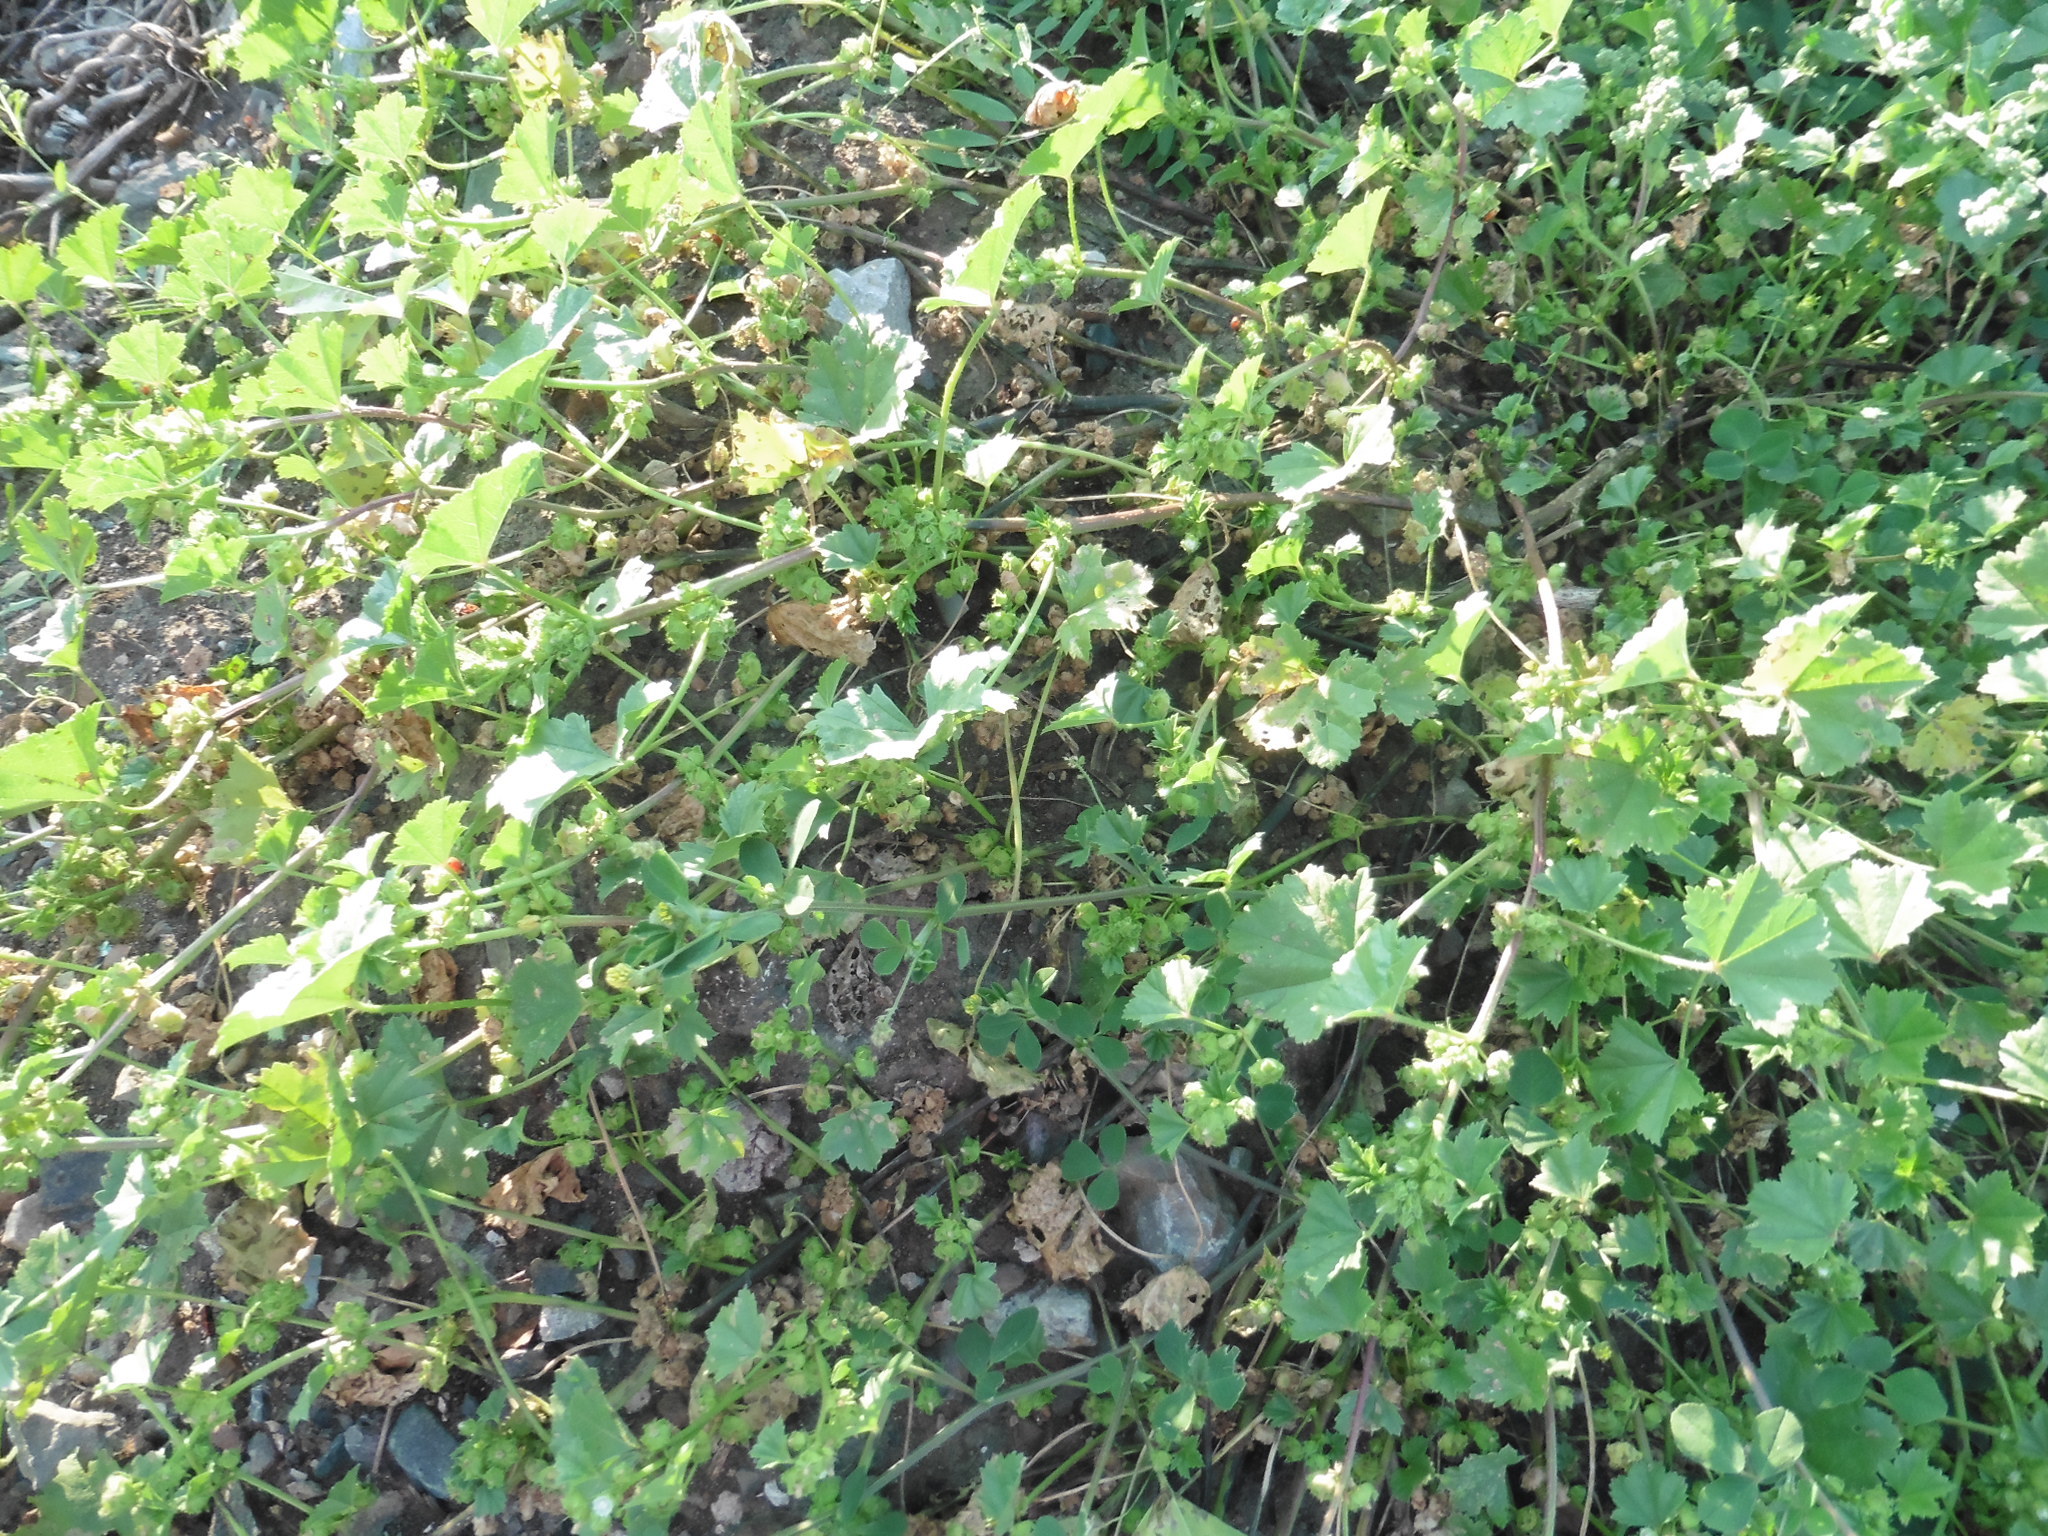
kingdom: Plantae
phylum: Tracheophyta
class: Magnoliopsida
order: Malvales
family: Malvaceae
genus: Malva
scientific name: Malva pusilla
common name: Small mallow
